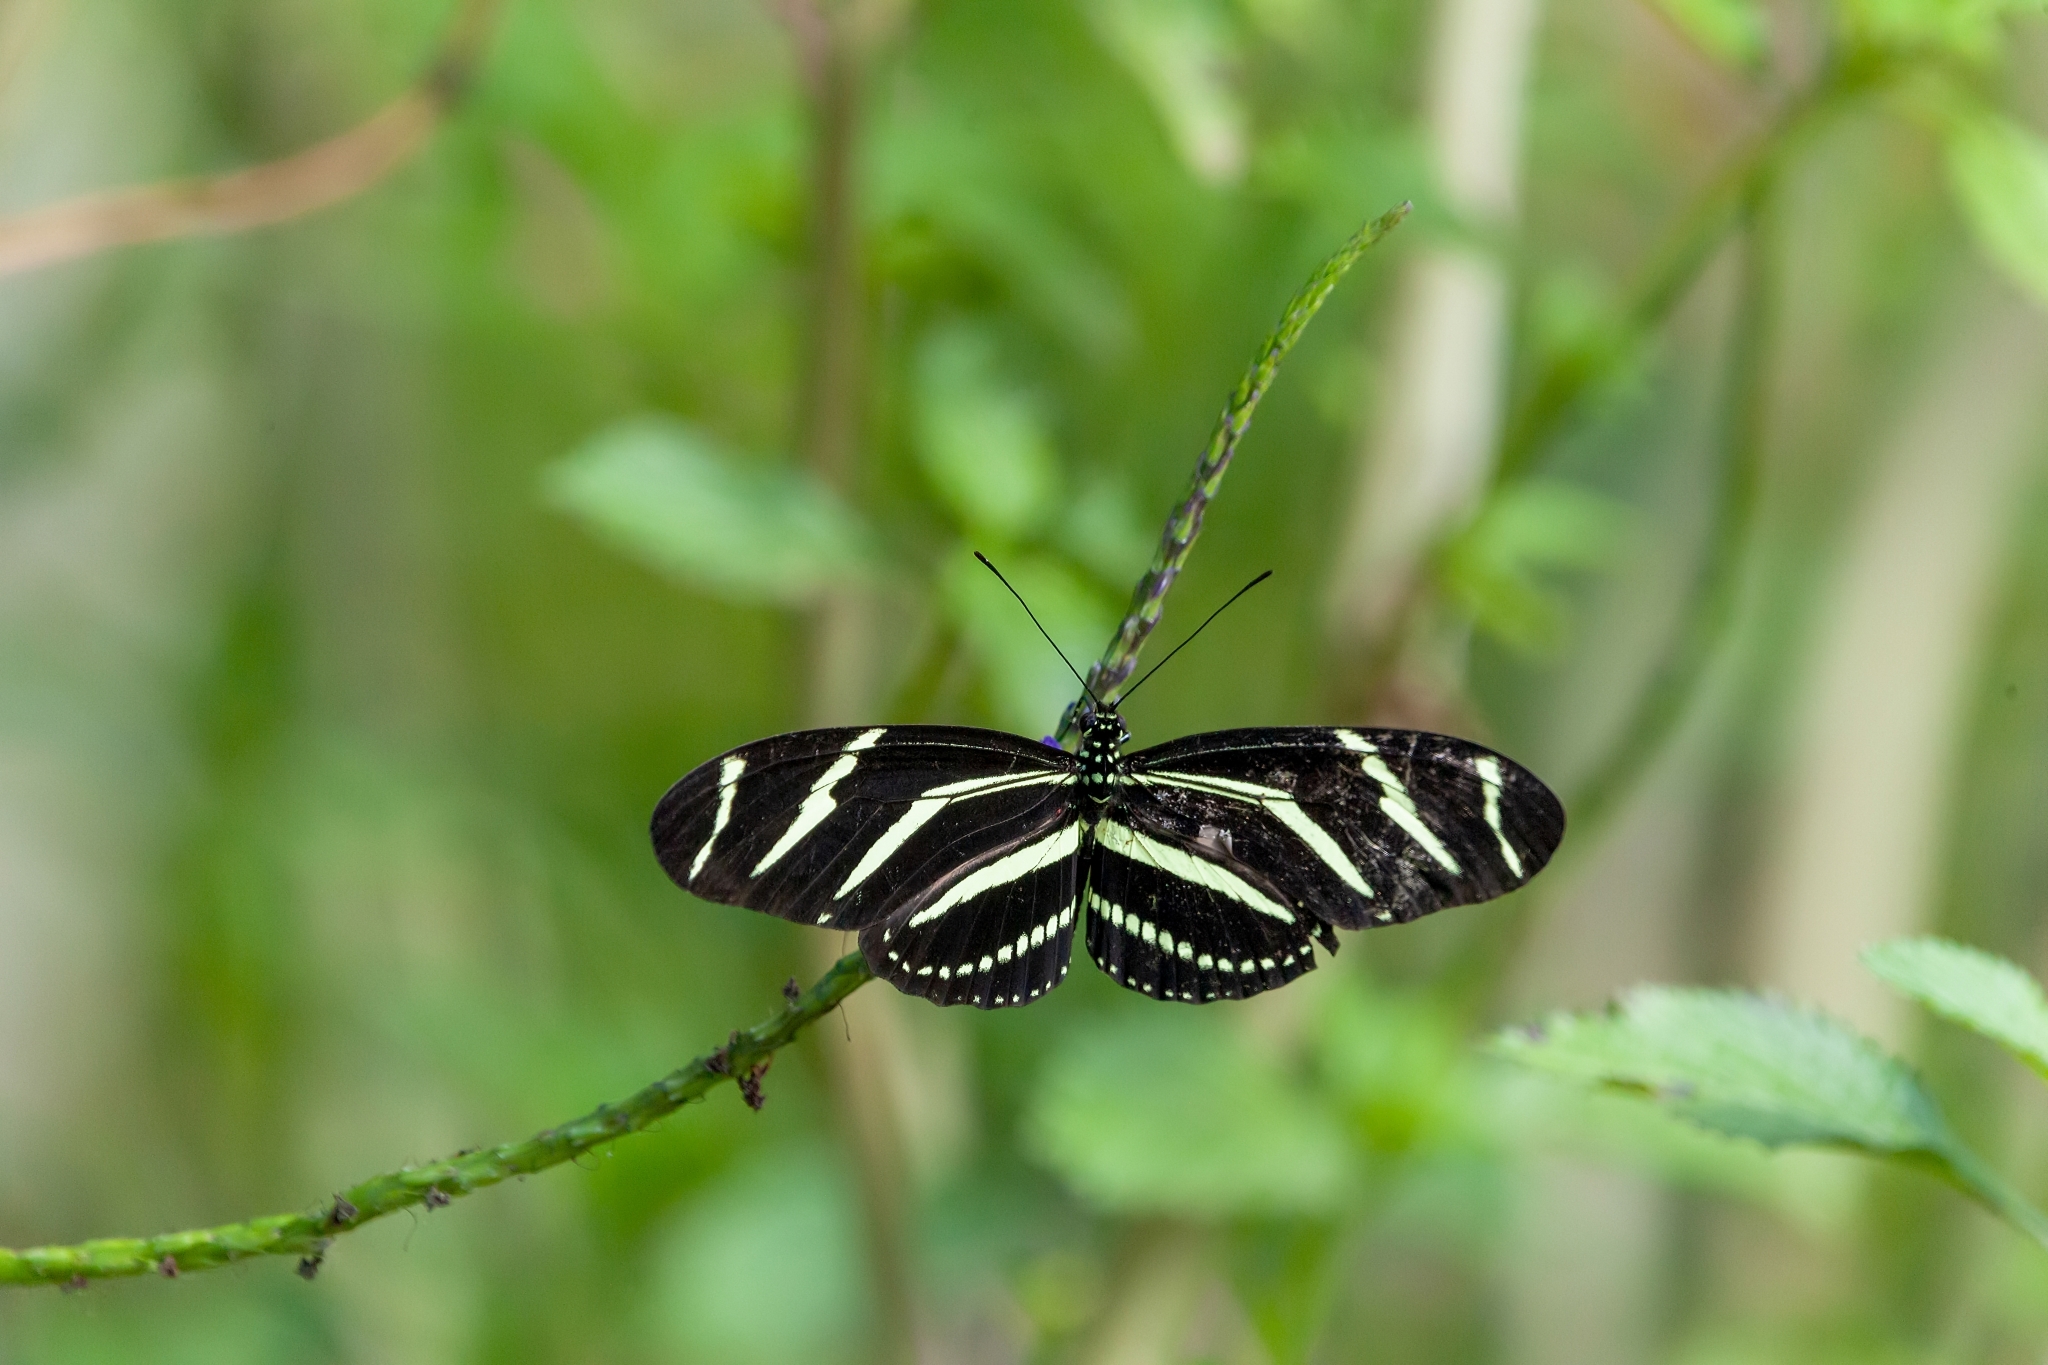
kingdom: Animalia
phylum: Arthropoda
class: Insecta
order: Lepidoptera
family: Nymphalidae
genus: Heliconius
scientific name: Heliconius charithonia
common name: Zebra long wing
